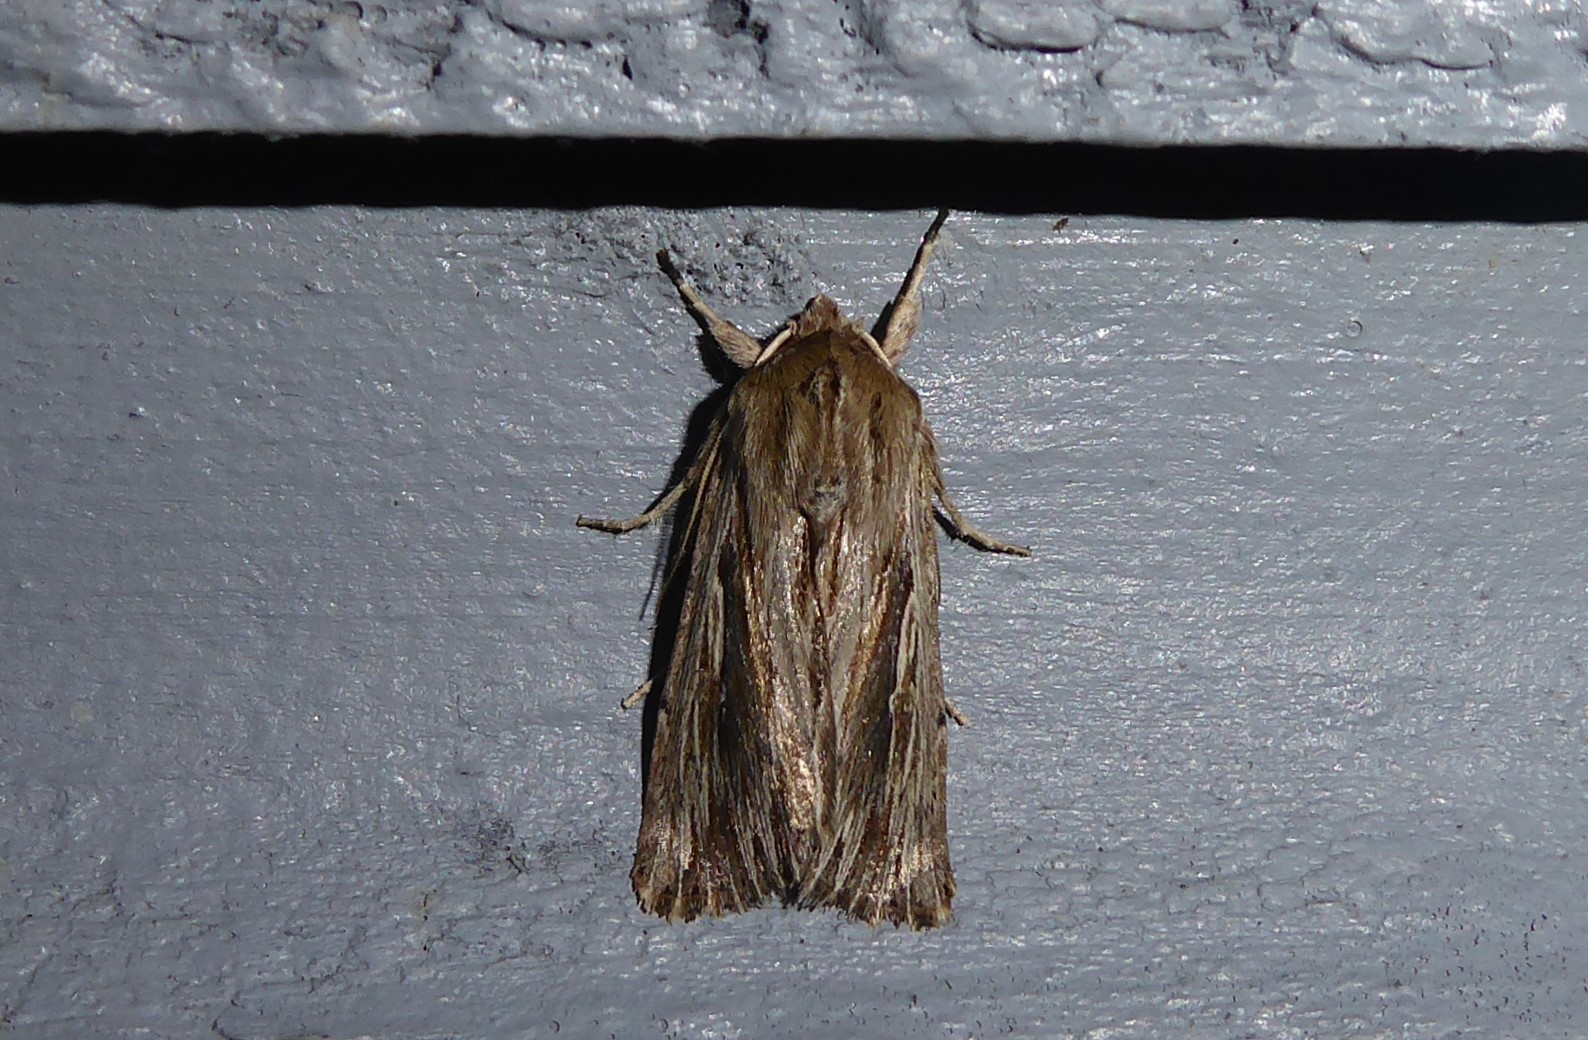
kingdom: Animalia
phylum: Arthropoda
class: Insecta
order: Lepidoptera
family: Noctuidae
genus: Persectania
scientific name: Persectania aversa
